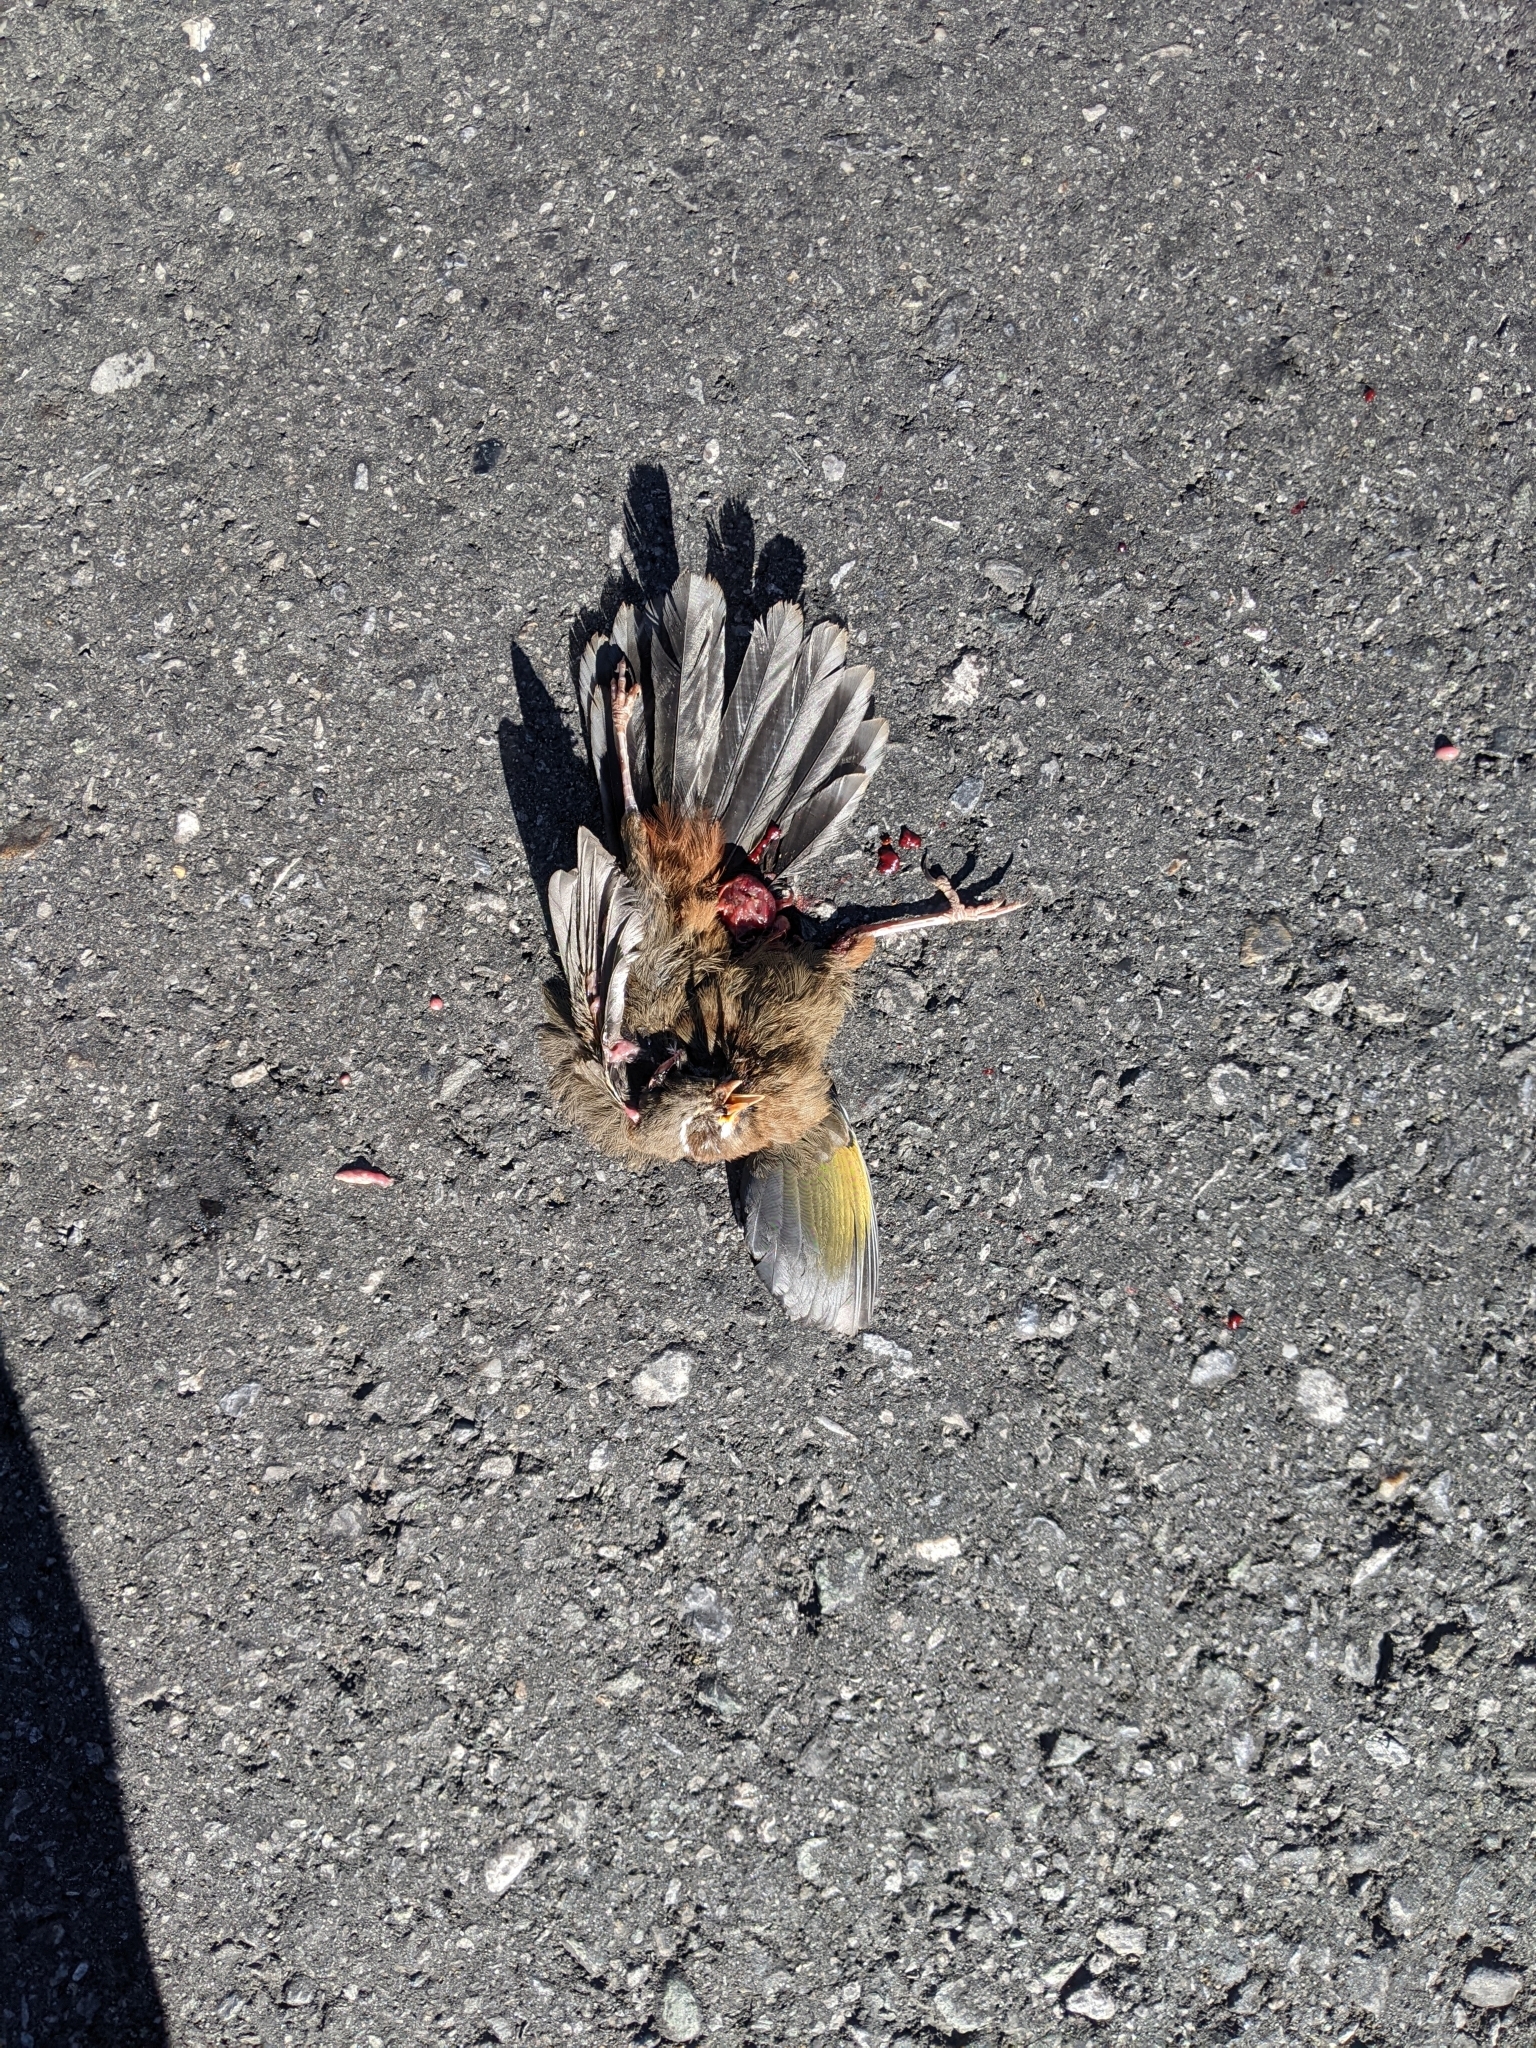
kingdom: Animalia
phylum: Chordata
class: Aves
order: Passeriformes
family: Leiothrichidae
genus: Trochalopteron
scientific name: Trochalopteron morrisonianum
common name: White-whiskered laughingthrush
